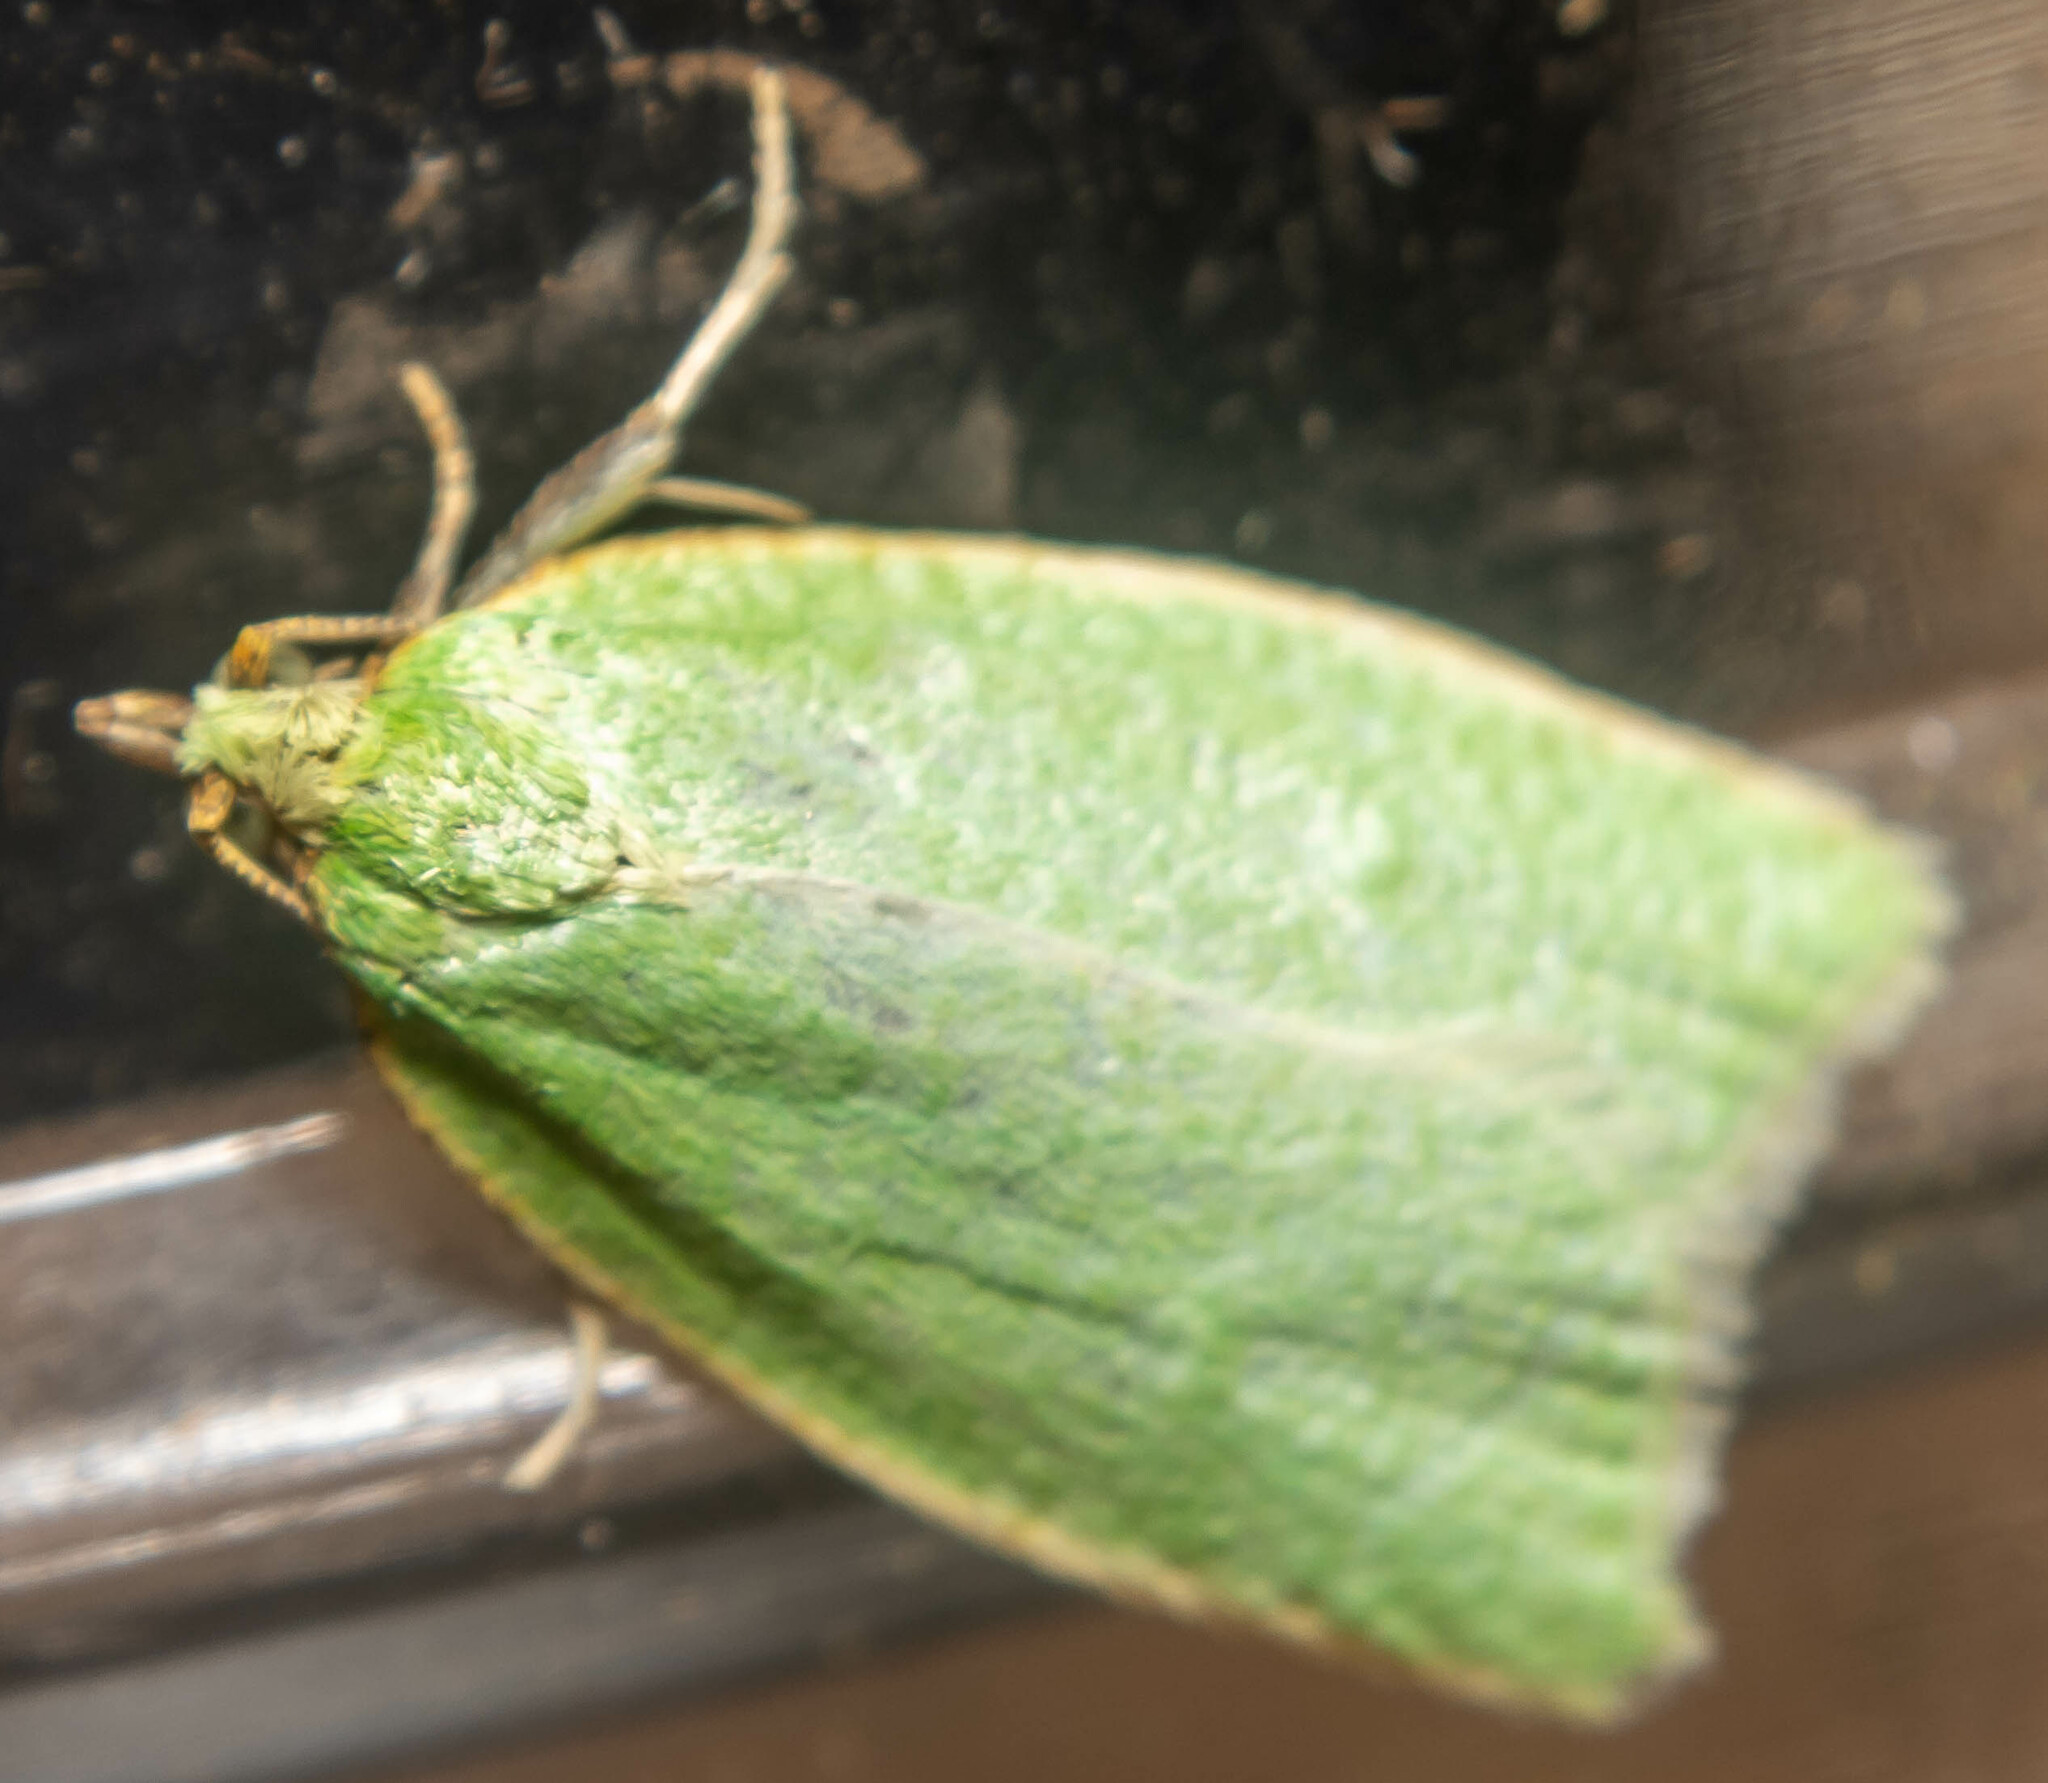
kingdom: Animalia
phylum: Arthropoda
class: Insecta
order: Lepidoptera
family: Tortricidae
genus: Tortrix
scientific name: Tortrix viridana
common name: Green oak tortrix
